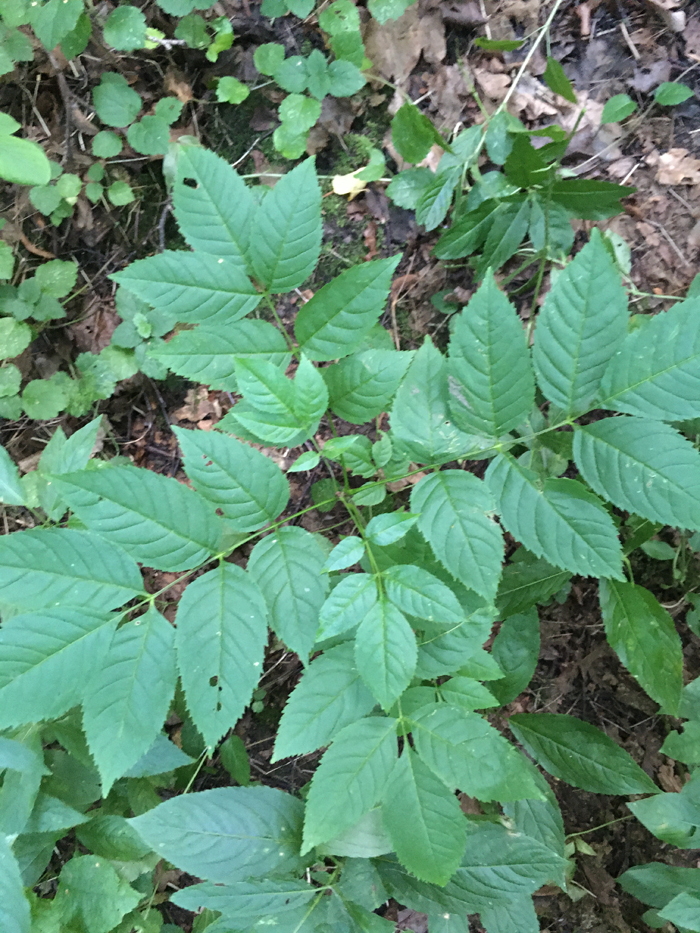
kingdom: Plantae
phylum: Tracheophyta
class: Magnoliopsida
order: Lamiales
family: Oleaceae
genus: Fraxinus
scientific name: Fraxinus excelsior
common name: European ash
